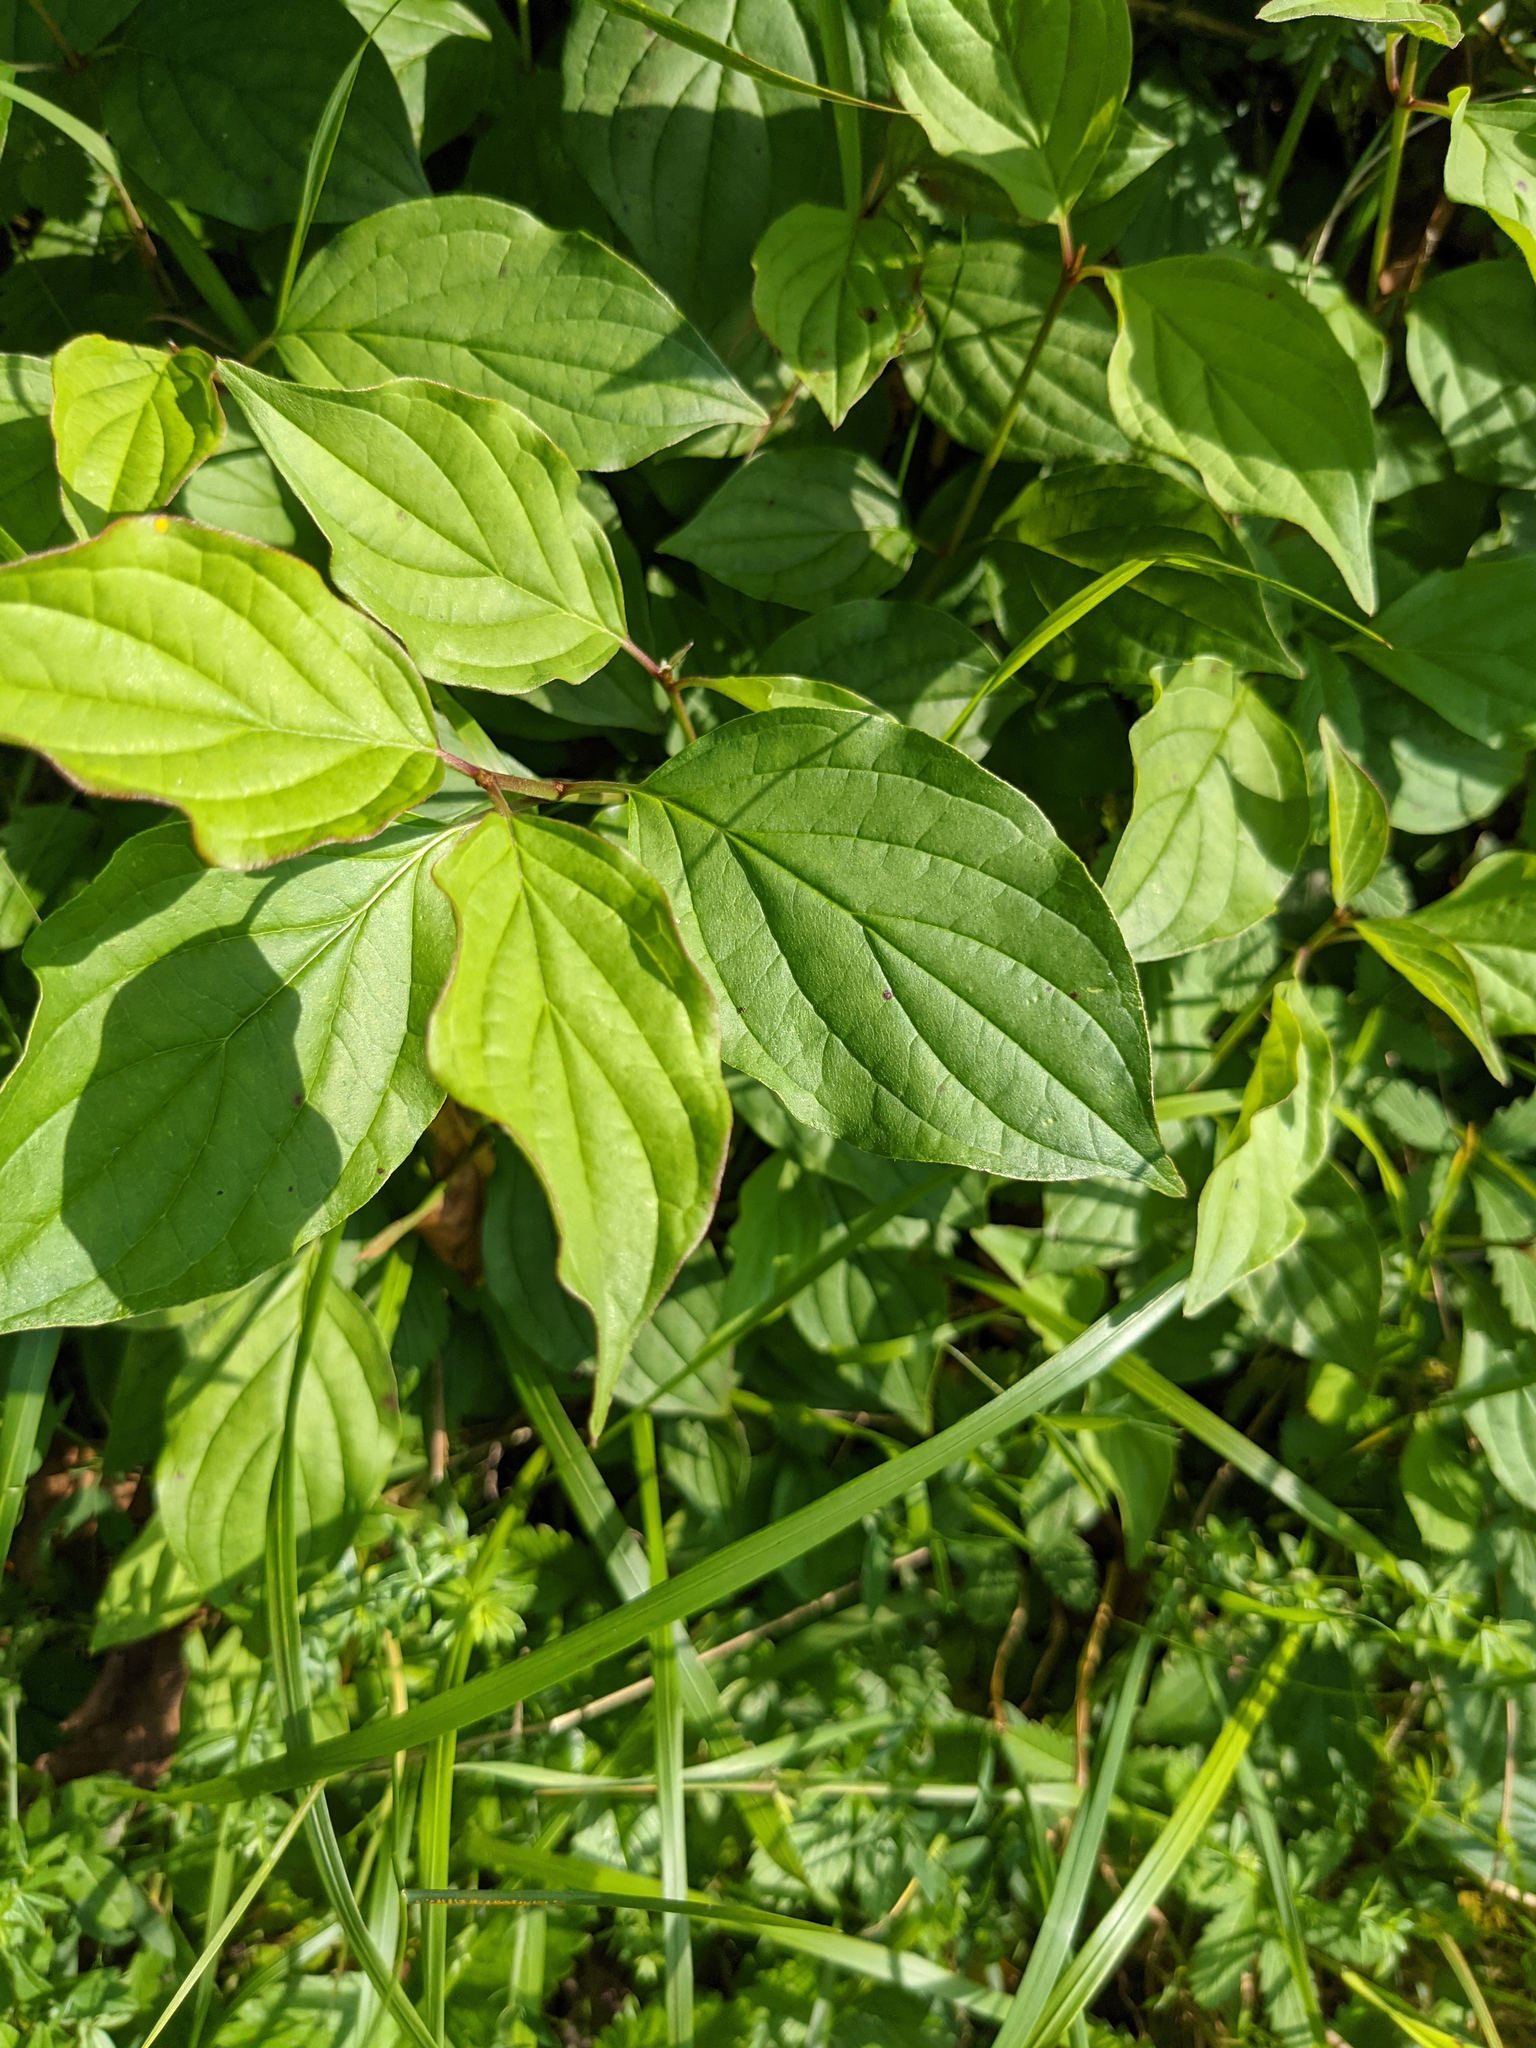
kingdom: Plantae
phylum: Tracheophyta
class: Magnoliopsida
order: Cornales
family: Cornaceae
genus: Cornus
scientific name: Cornus sanguinea
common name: Dogwood
